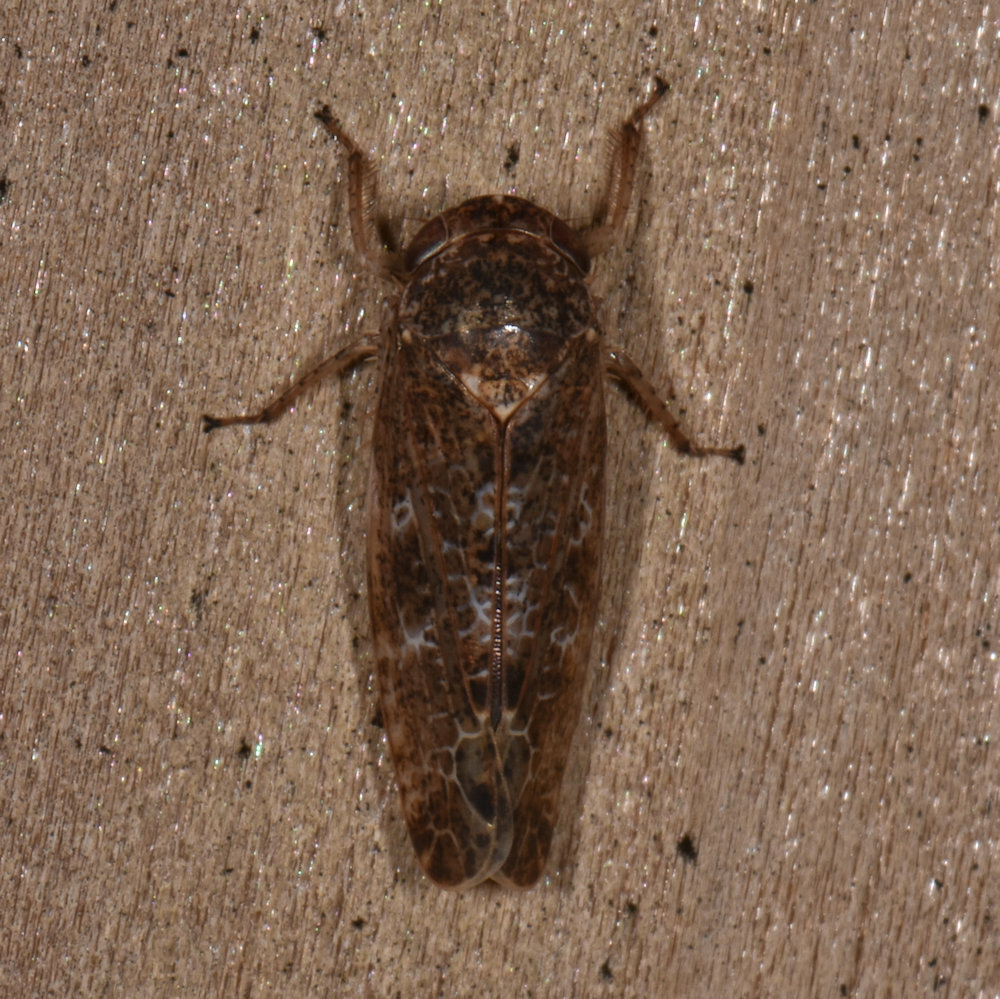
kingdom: Animalia
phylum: Arthropoda
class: Insecta
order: Hemiptera
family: Cicadellidae
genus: Allygidius
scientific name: Allygidius atomarius
